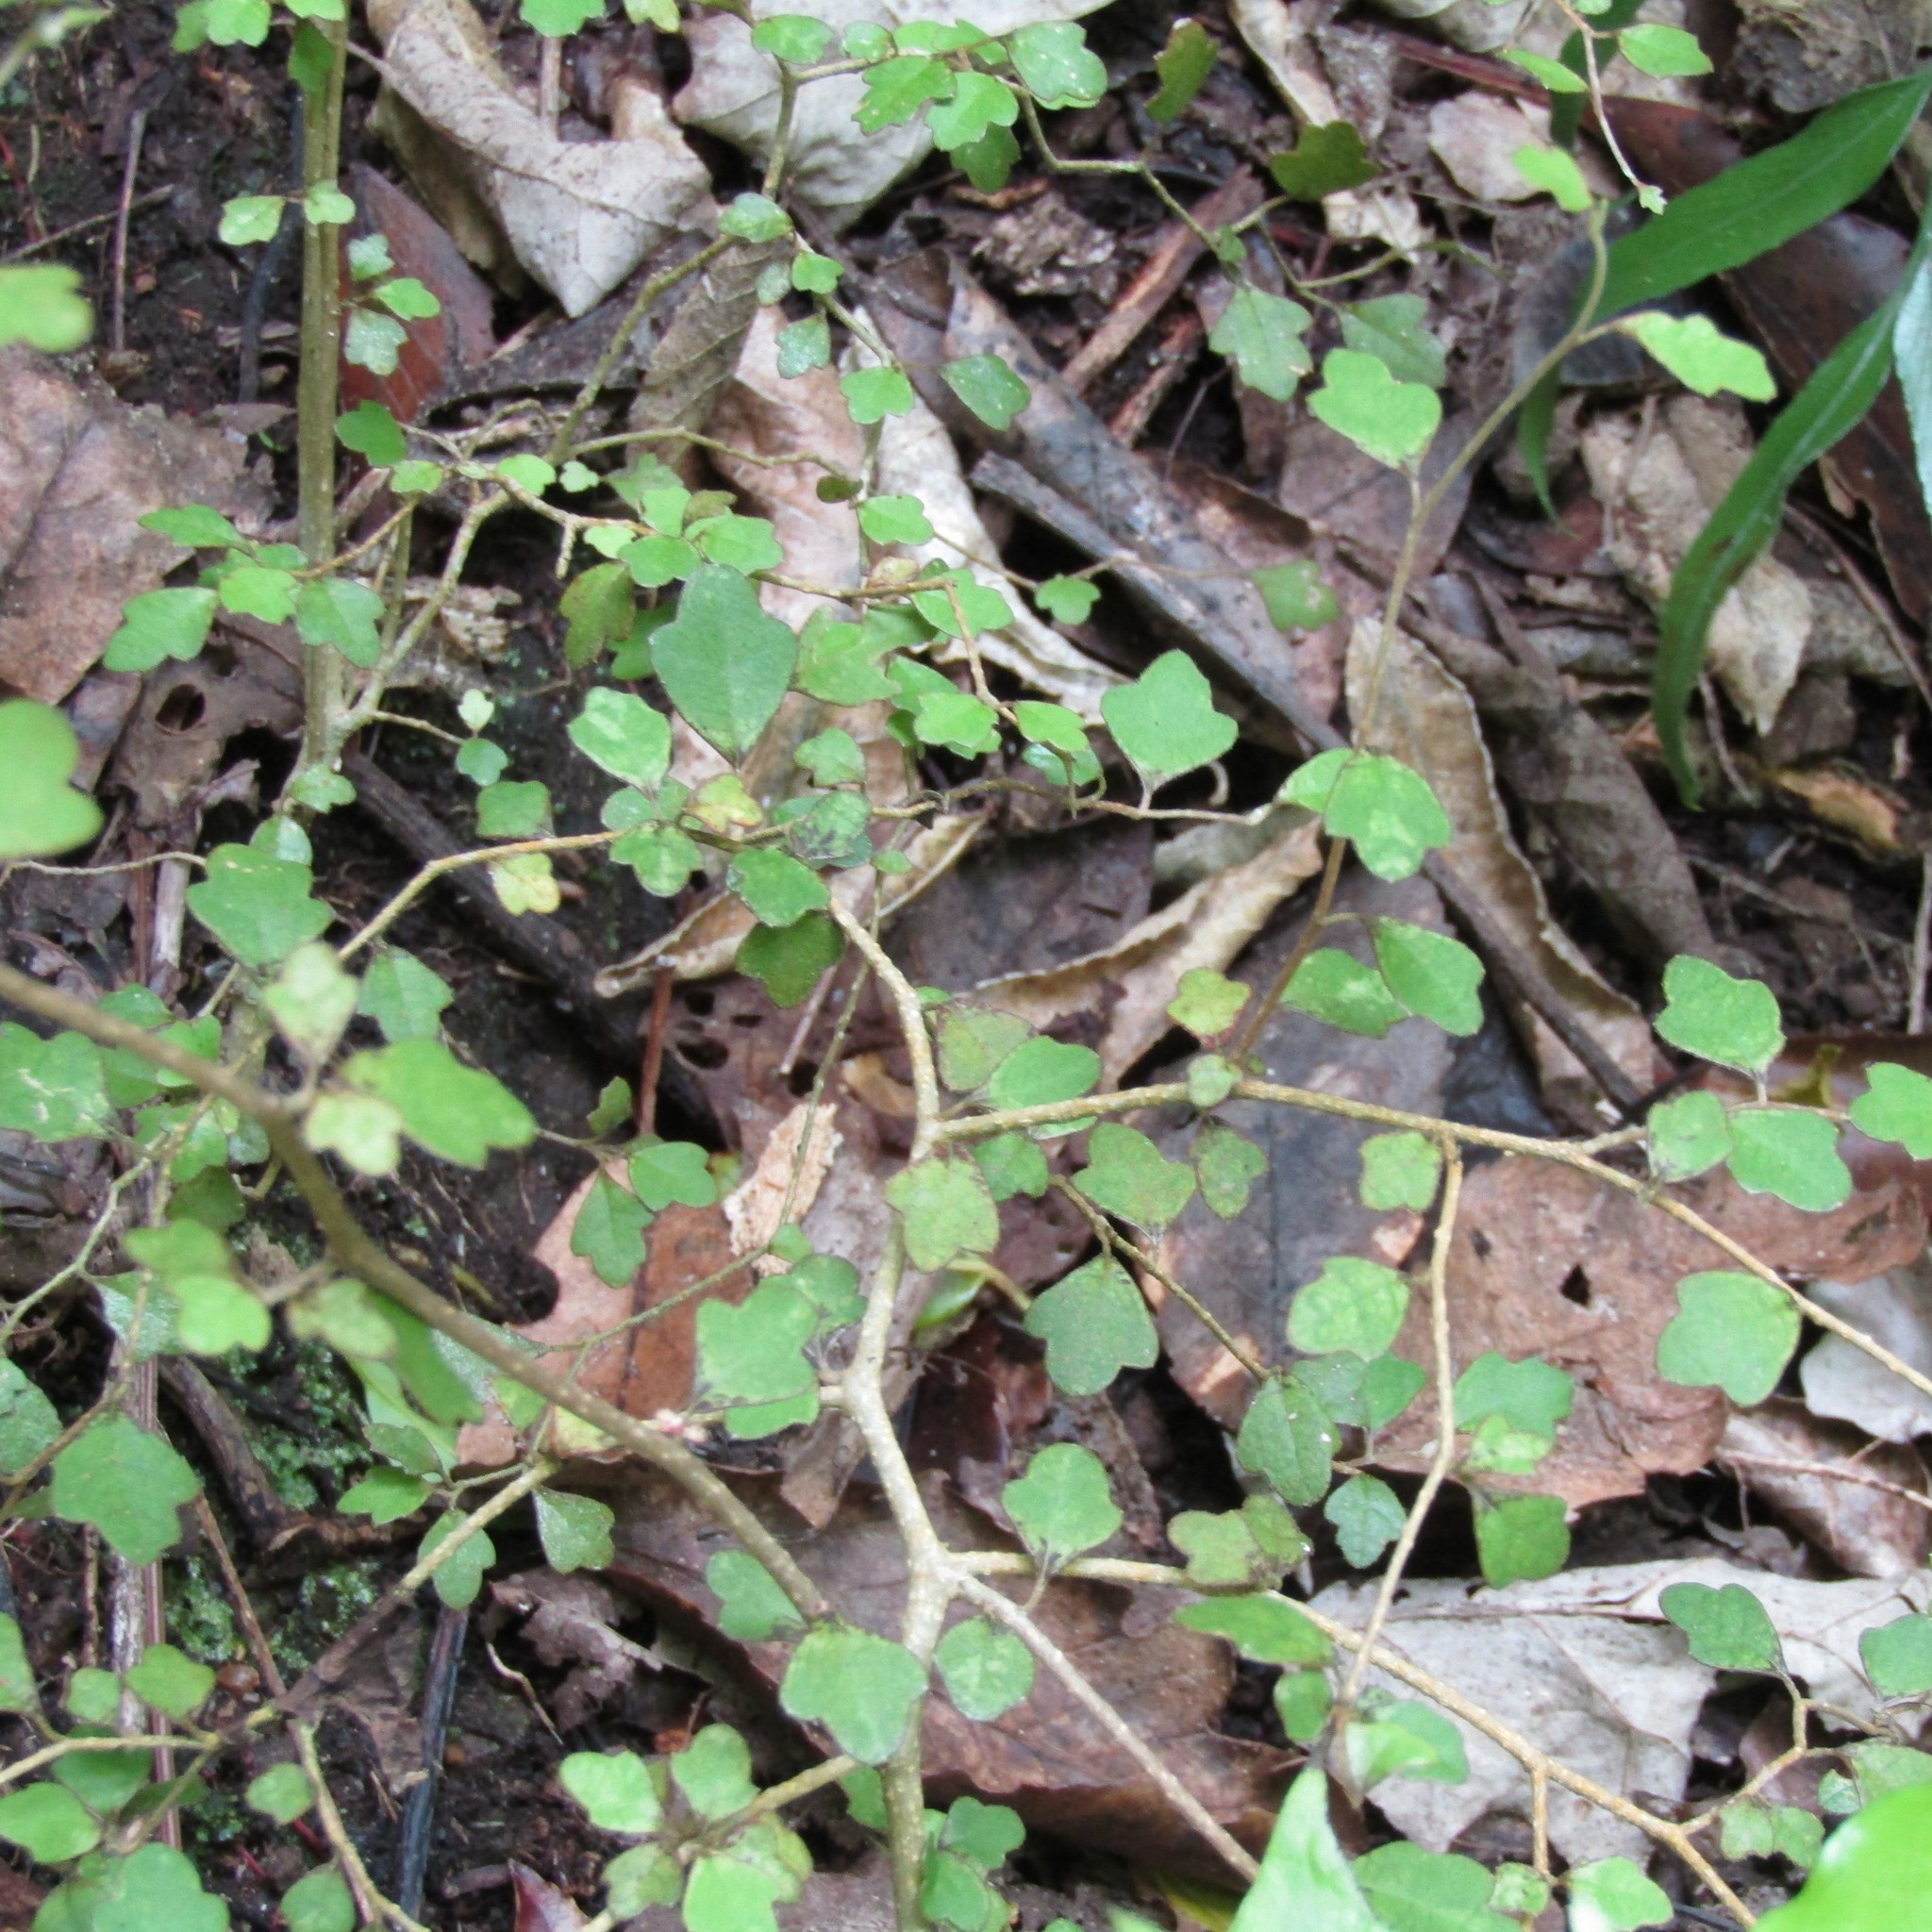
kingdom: Plantae
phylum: Tracheophyta
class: Magnoliopsida
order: Apiales
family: Pennantiaceae
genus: Pennantia
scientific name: Pennantia corymbosa
